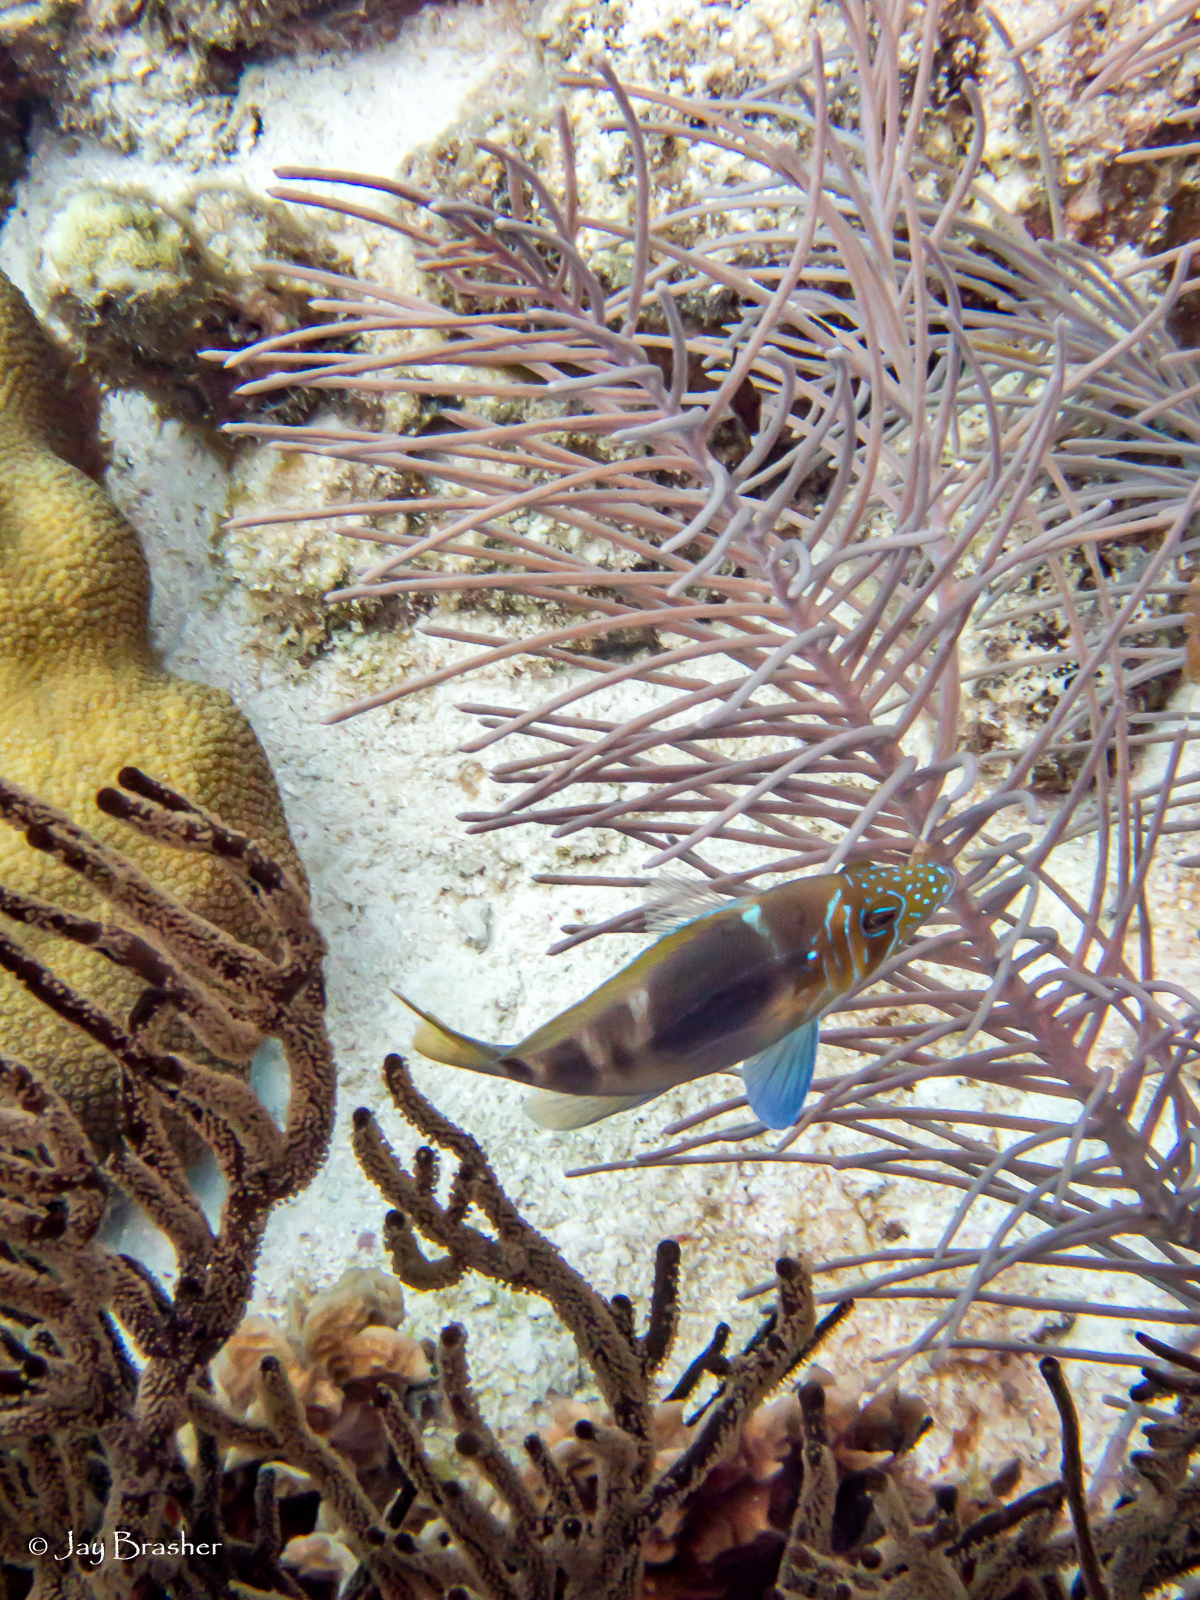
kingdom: Animalia
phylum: Chordata
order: Perciformes
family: Serranidae
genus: Hypoplectrus
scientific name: Hypoplectrus puella
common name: Barred hamlet
